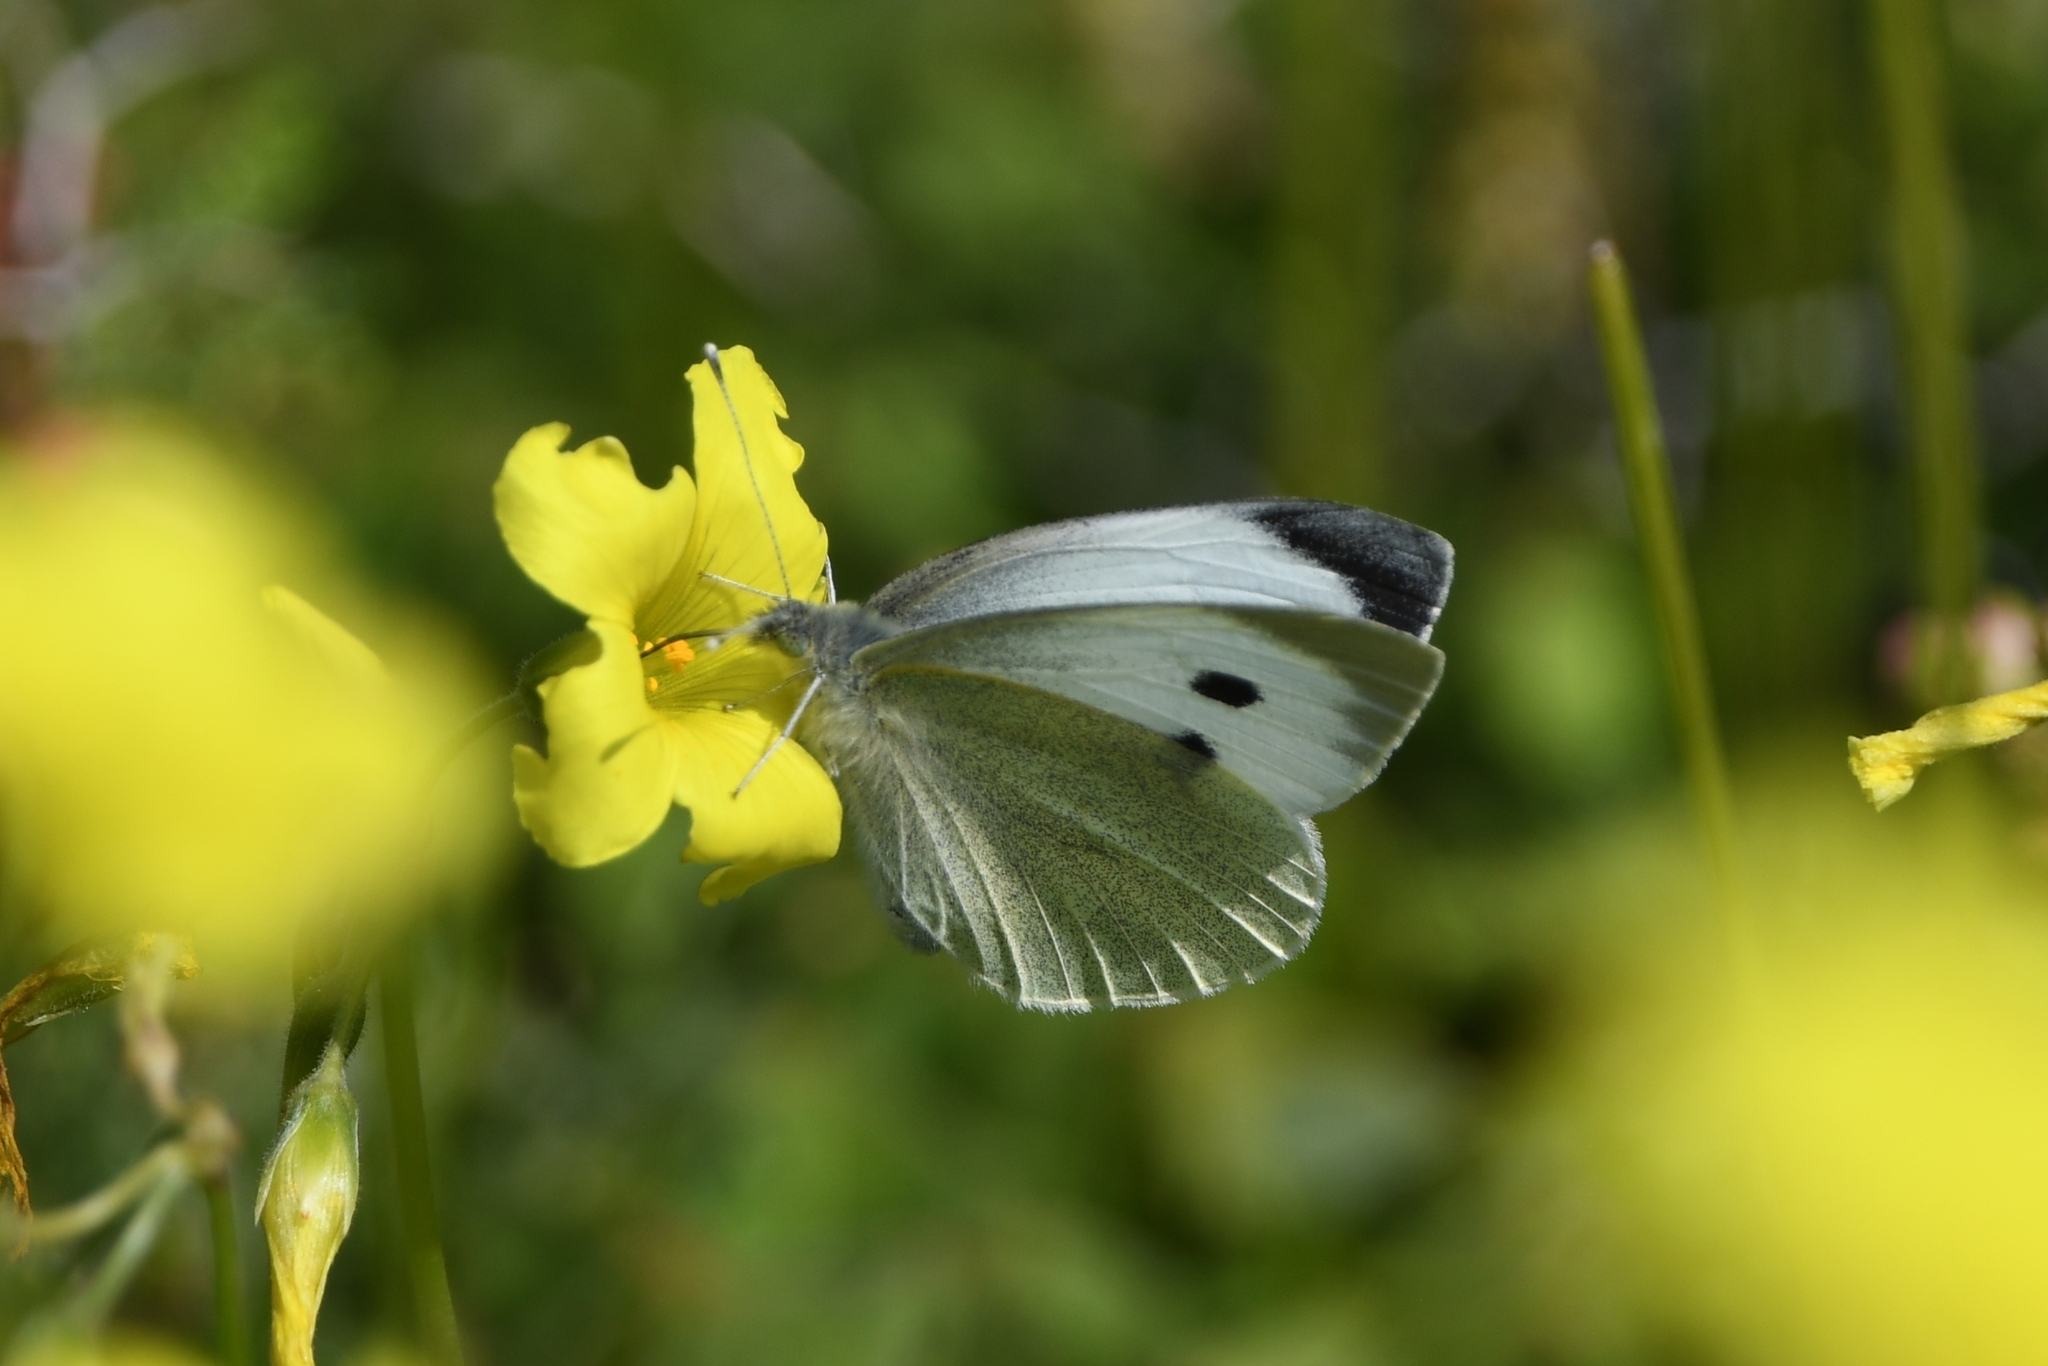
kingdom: Animalia
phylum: Arthropoda
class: Insecta
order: Lepidoptera
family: Pieridae
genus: Pieris
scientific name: Pieris brassicae
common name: Large white
